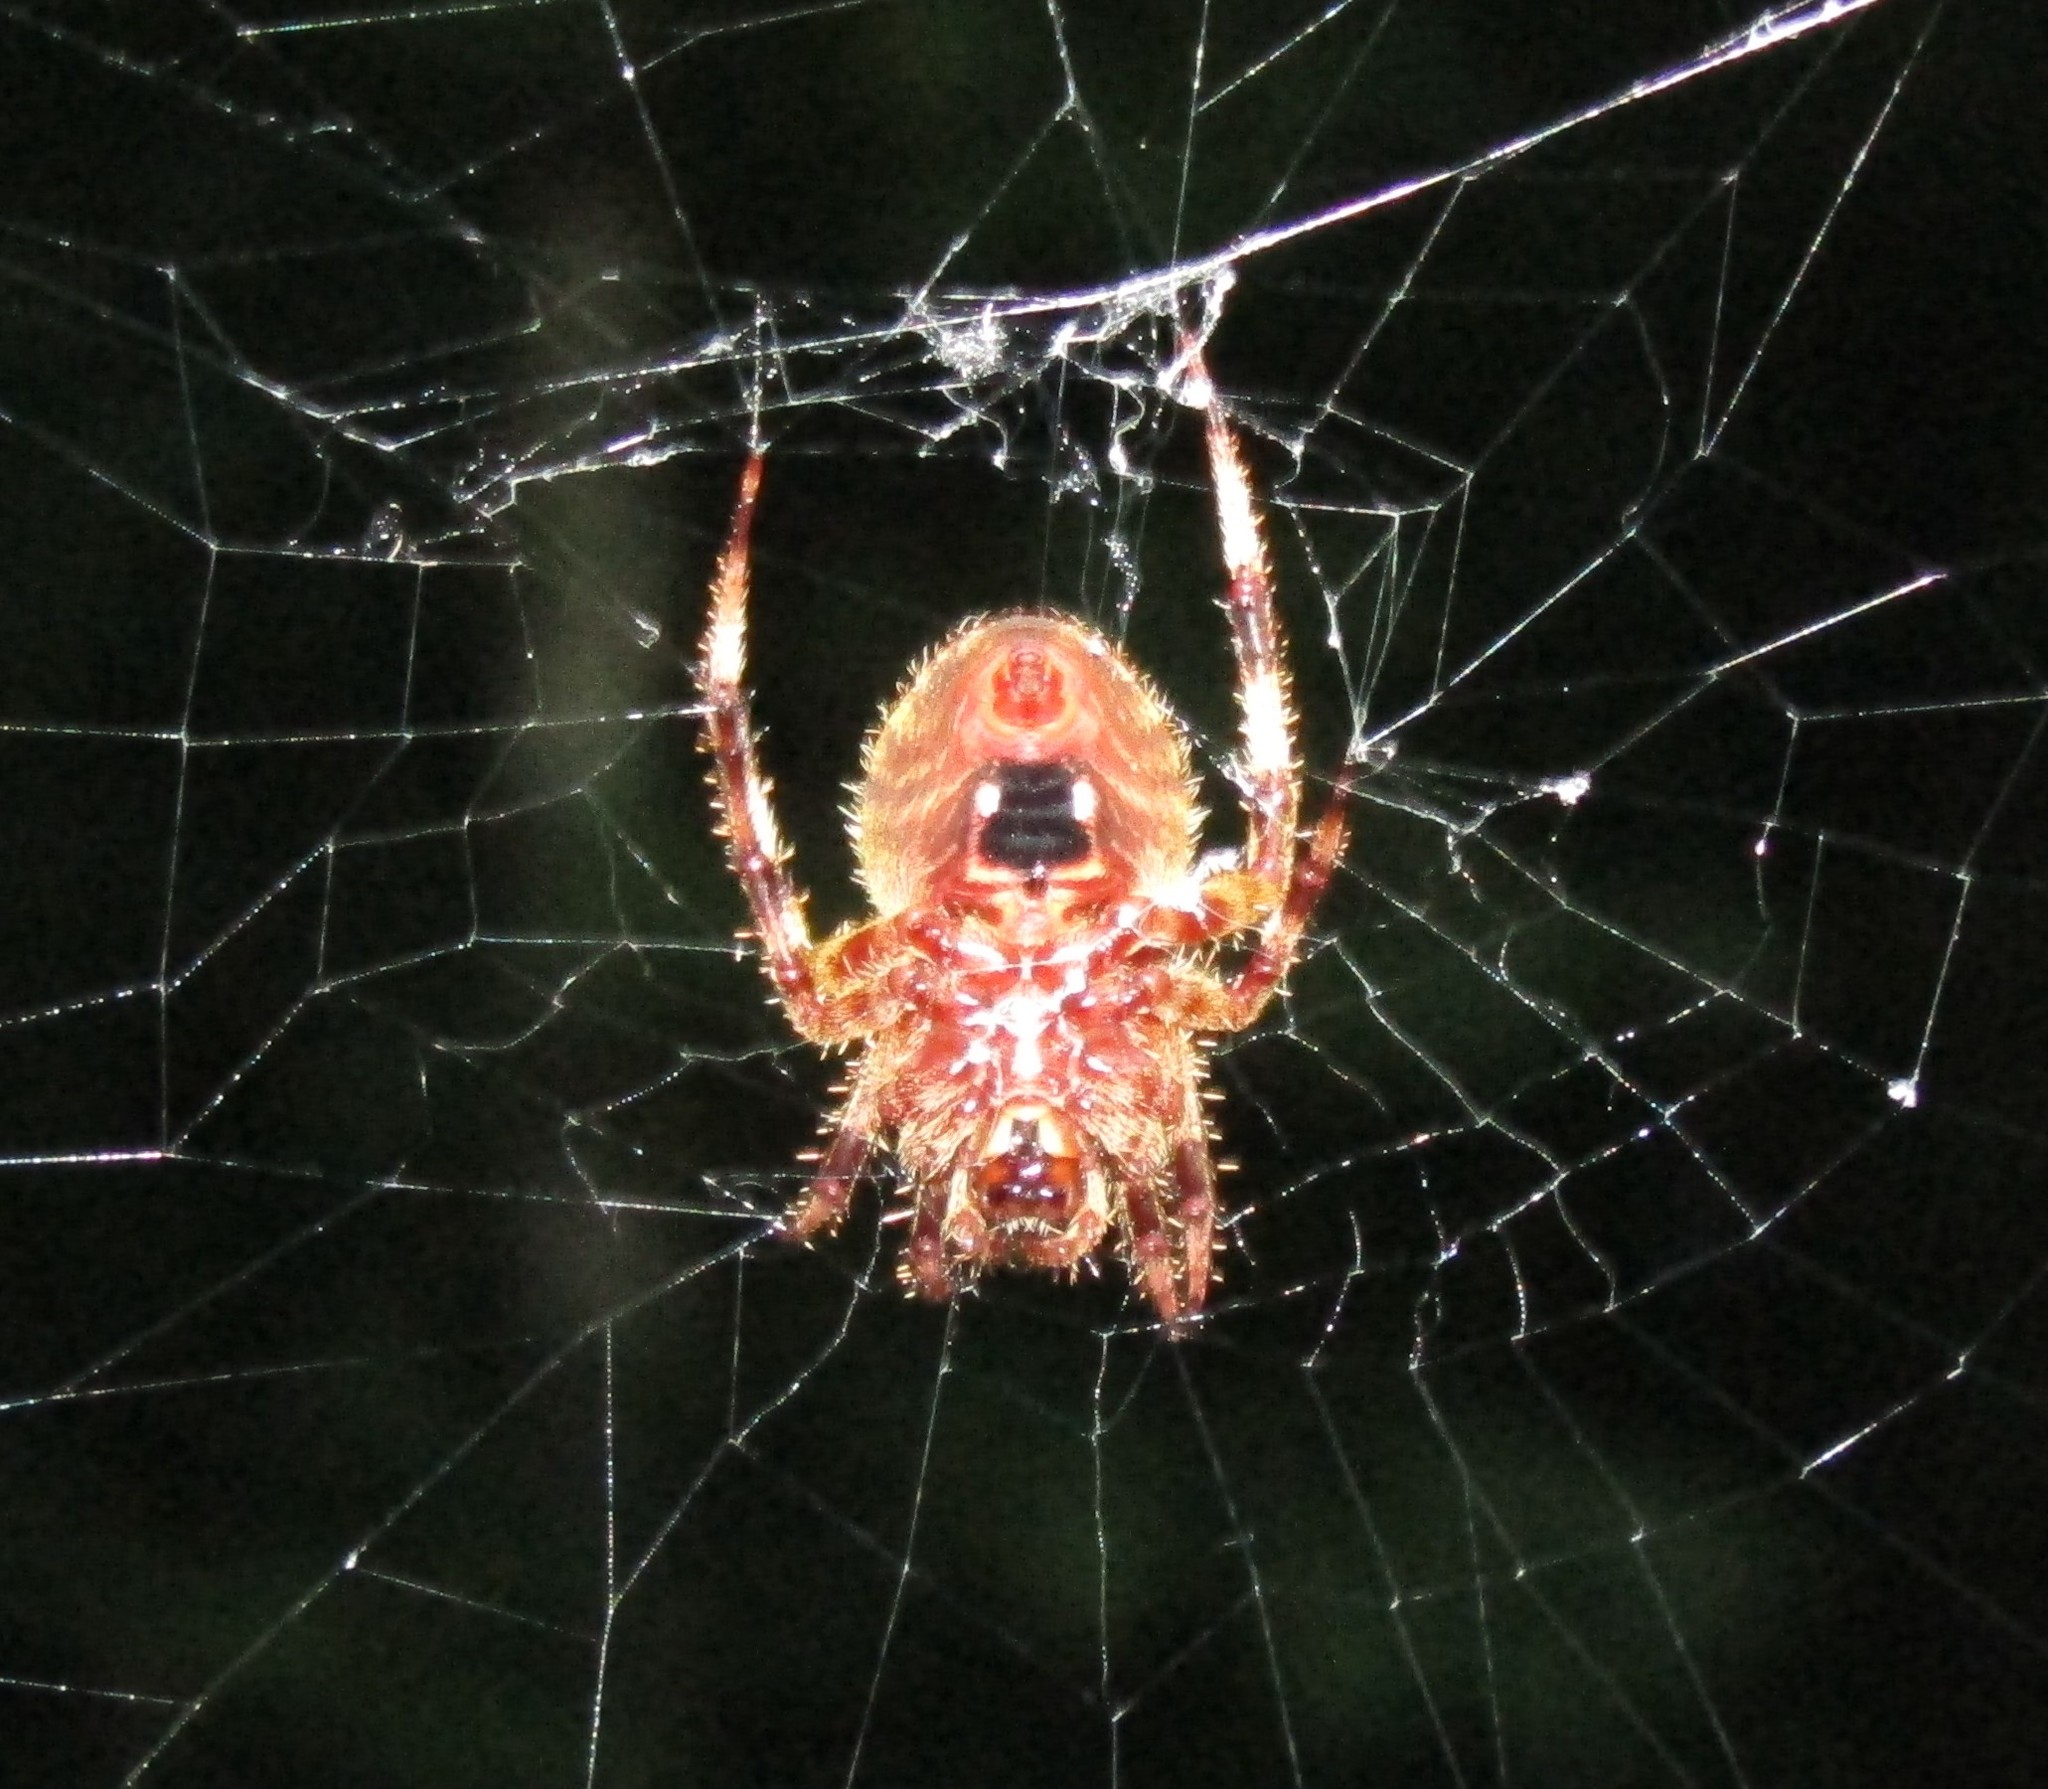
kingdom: Animalia
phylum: Arthropoda
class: Arachnida
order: Araneae
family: Araneidae
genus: Neoscona
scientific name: Neoscona crucifera
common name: Spotted orbweaver
